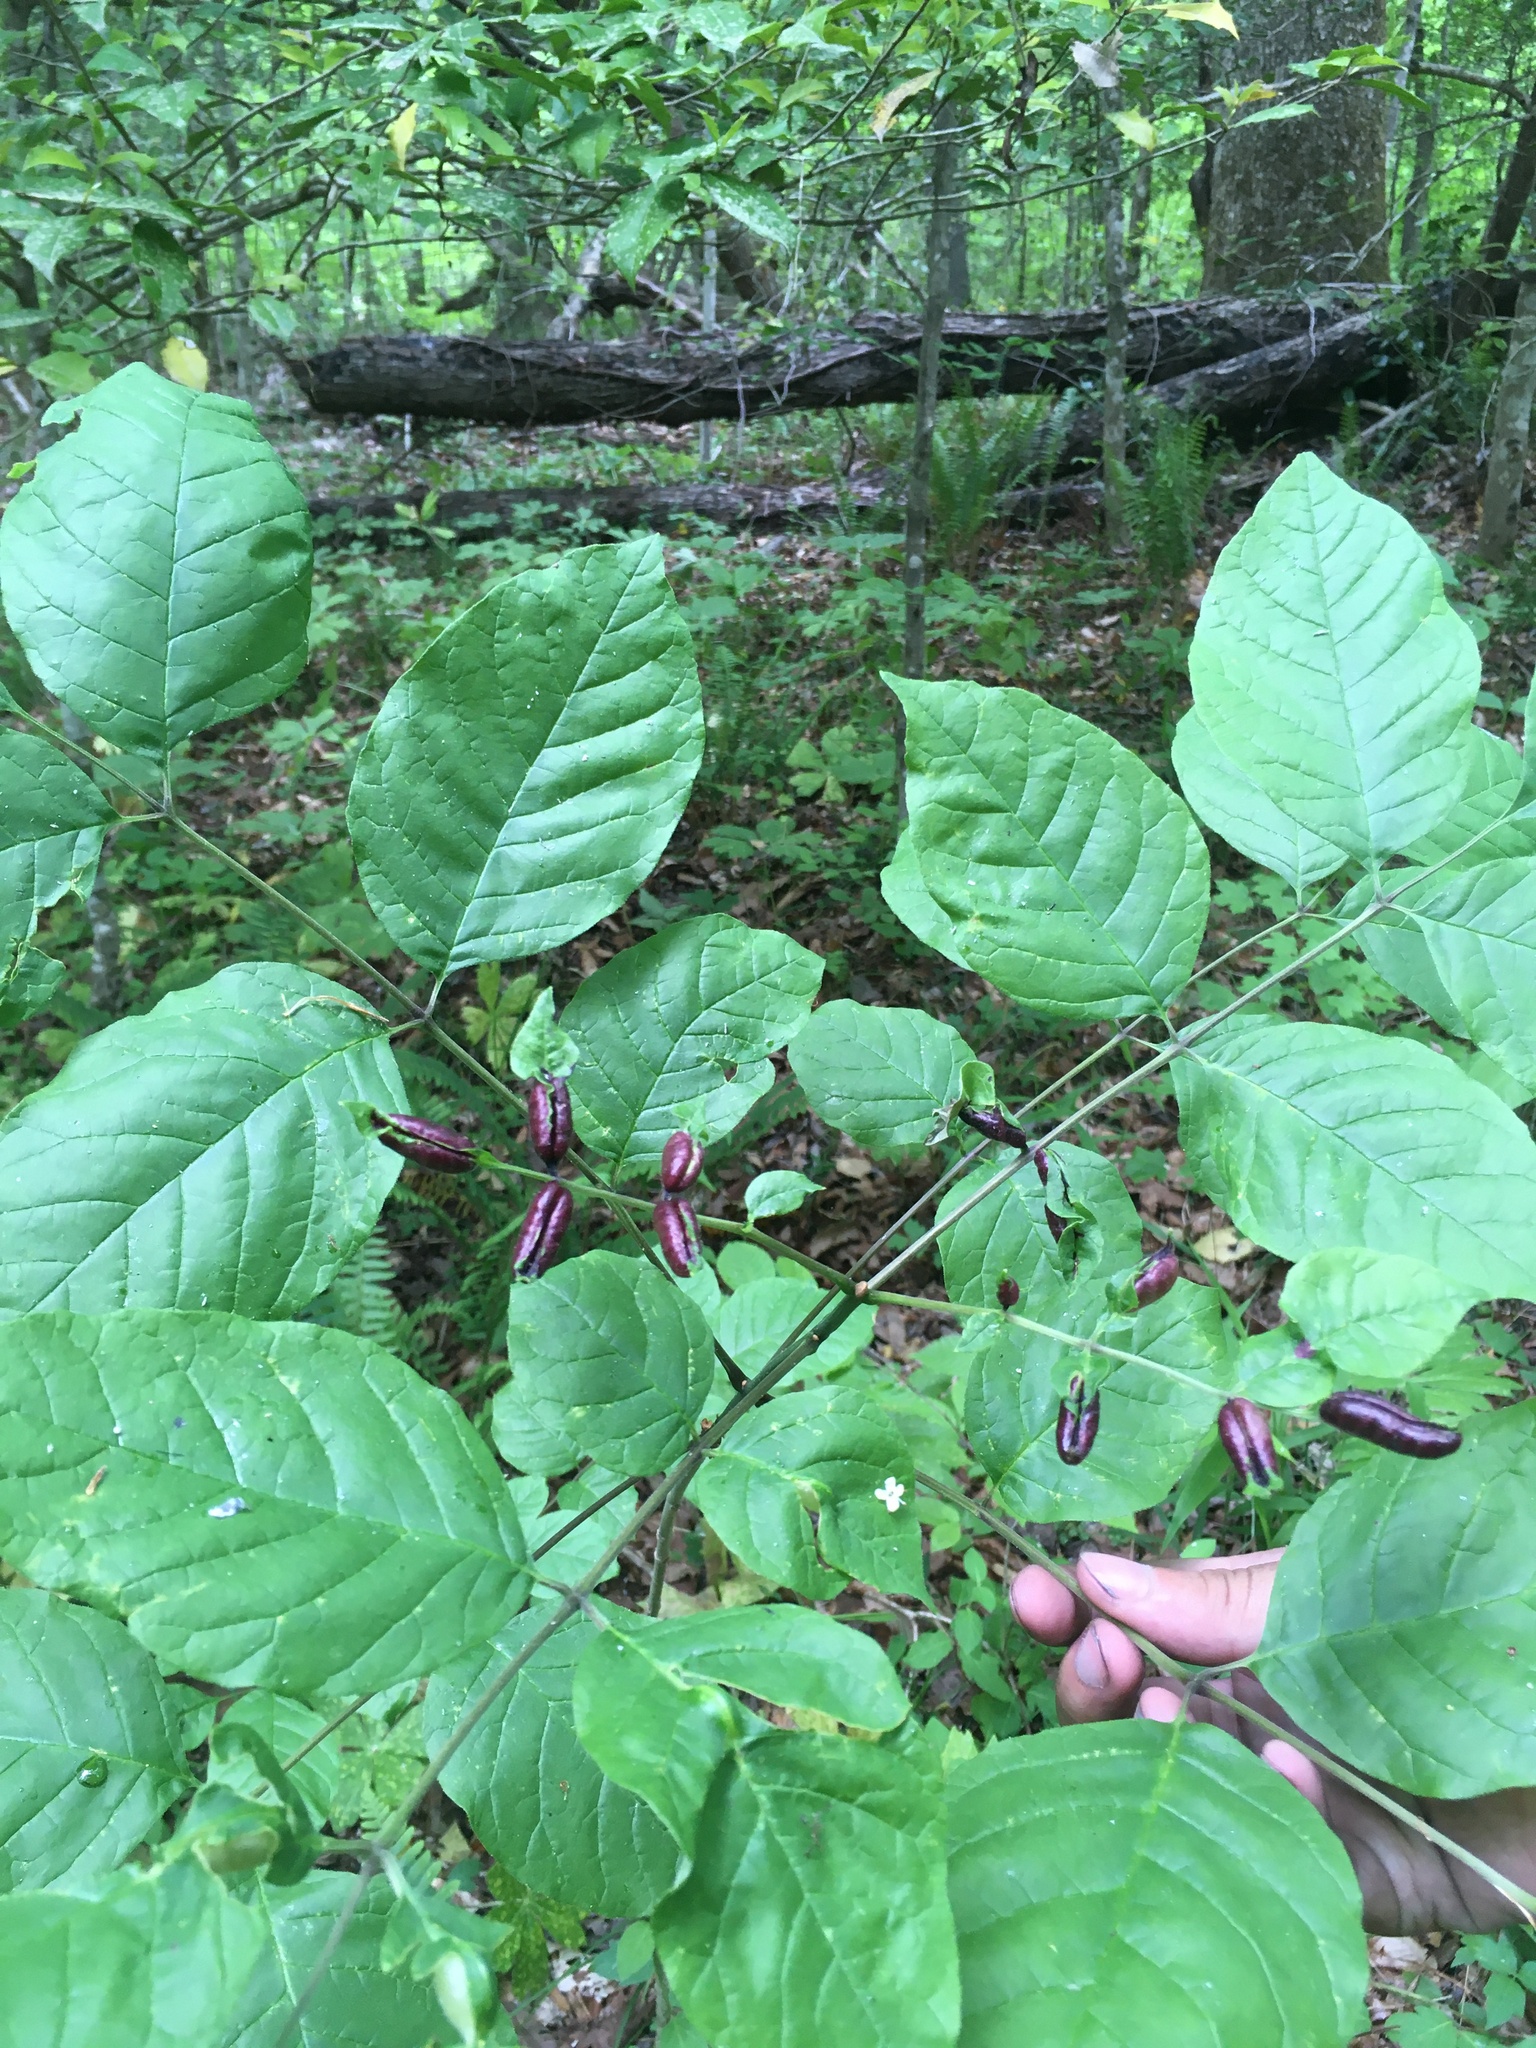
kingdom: Animalia
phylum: Arthropoda
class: Insecta
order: Diptera
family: Cecidomyiidae
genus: Dasineura
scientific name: Dasineura tumidosae
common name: Ash petiole gall midge
